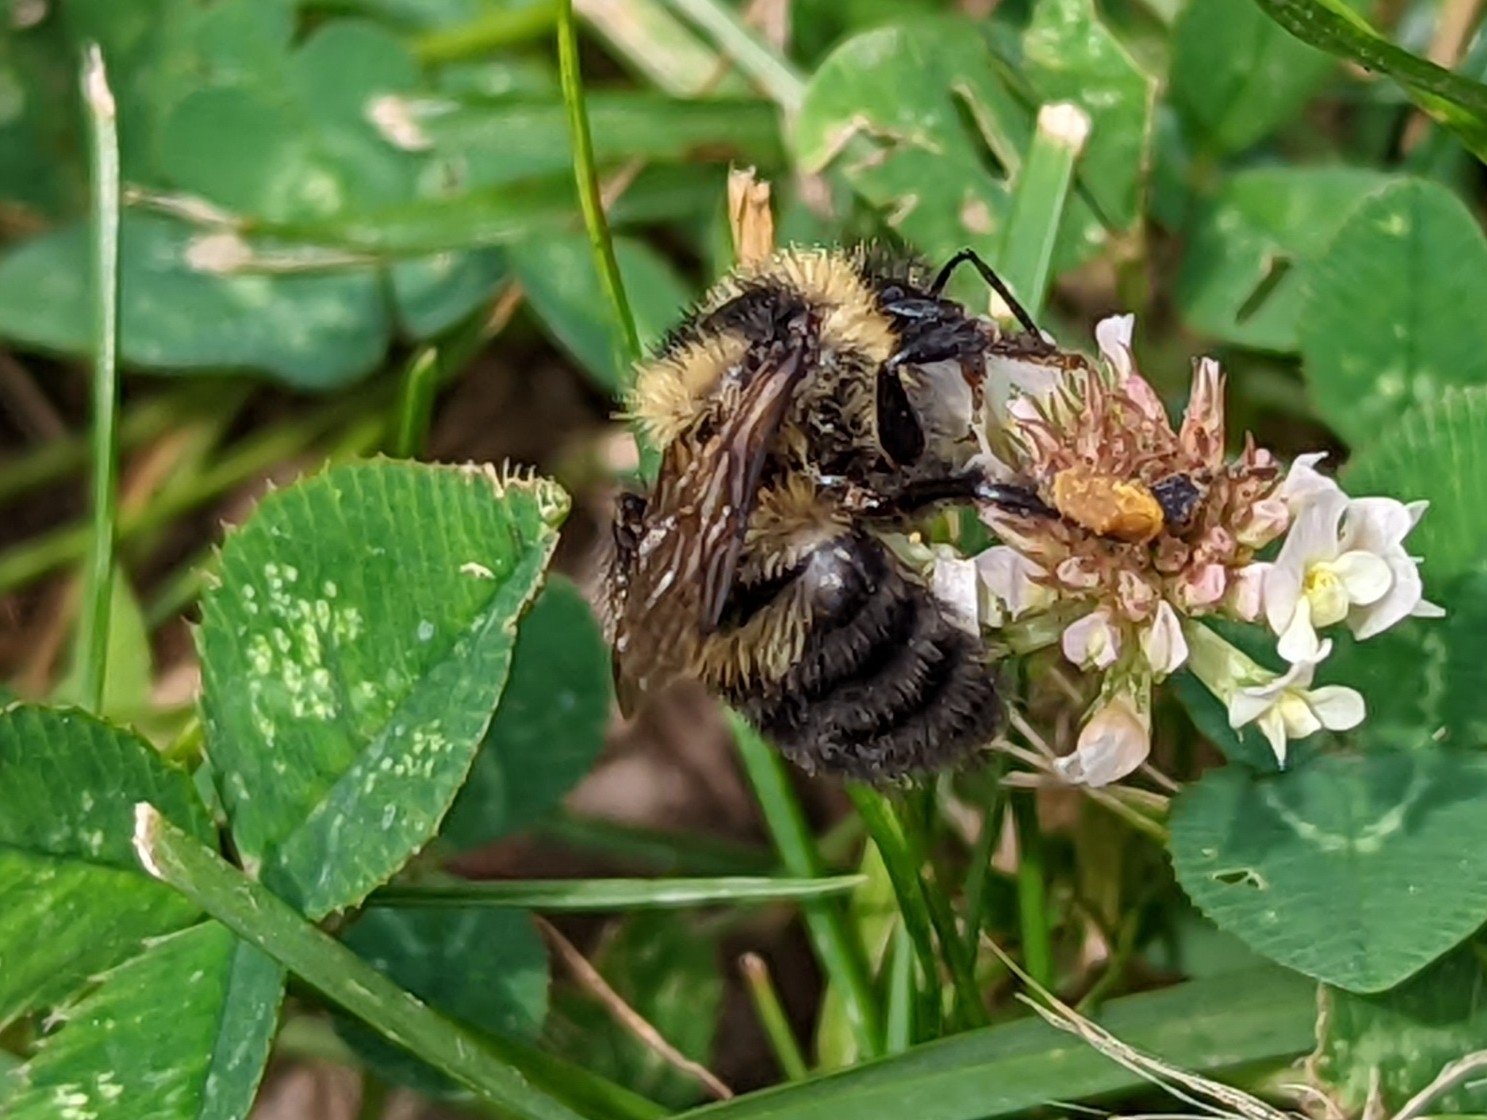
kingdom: Animalia
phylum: Arthropoda
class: Insecta
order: Hymenoptera
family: Apidae
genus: Bombus
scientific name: Bombus rufocinctus
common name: Red-belted bumble bee
